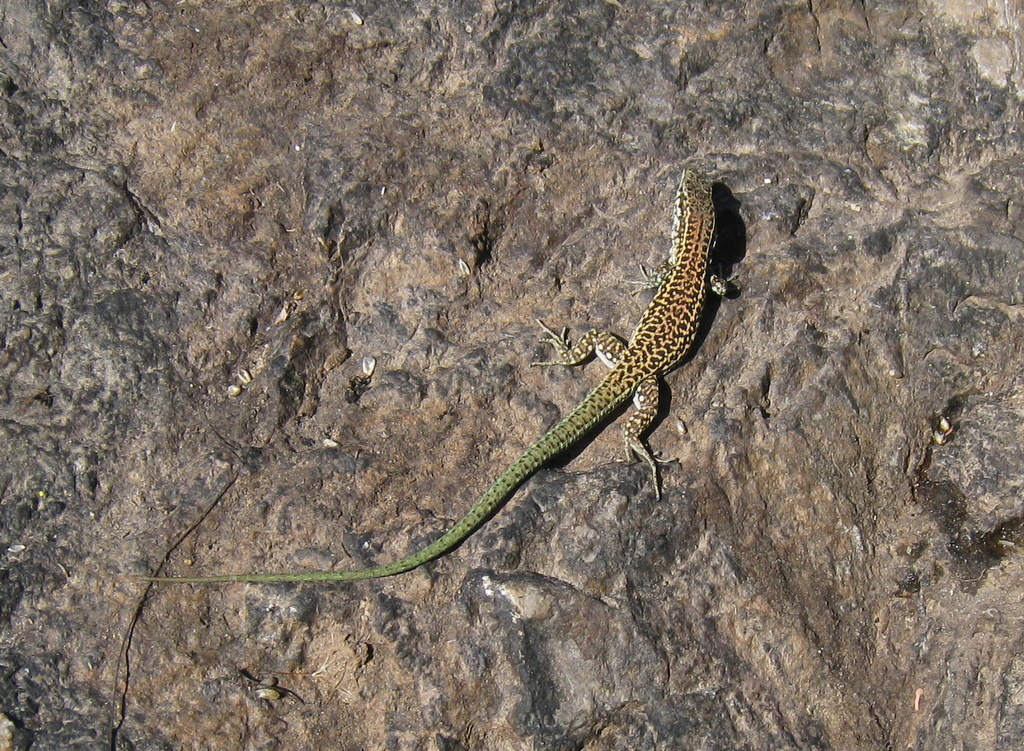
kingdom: Animalia
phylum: Chordata
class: Squamata
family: Lacertidae
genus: Podarcis
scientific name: Podarcis tiliguerta
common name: Tyrrhenian wall lizard
